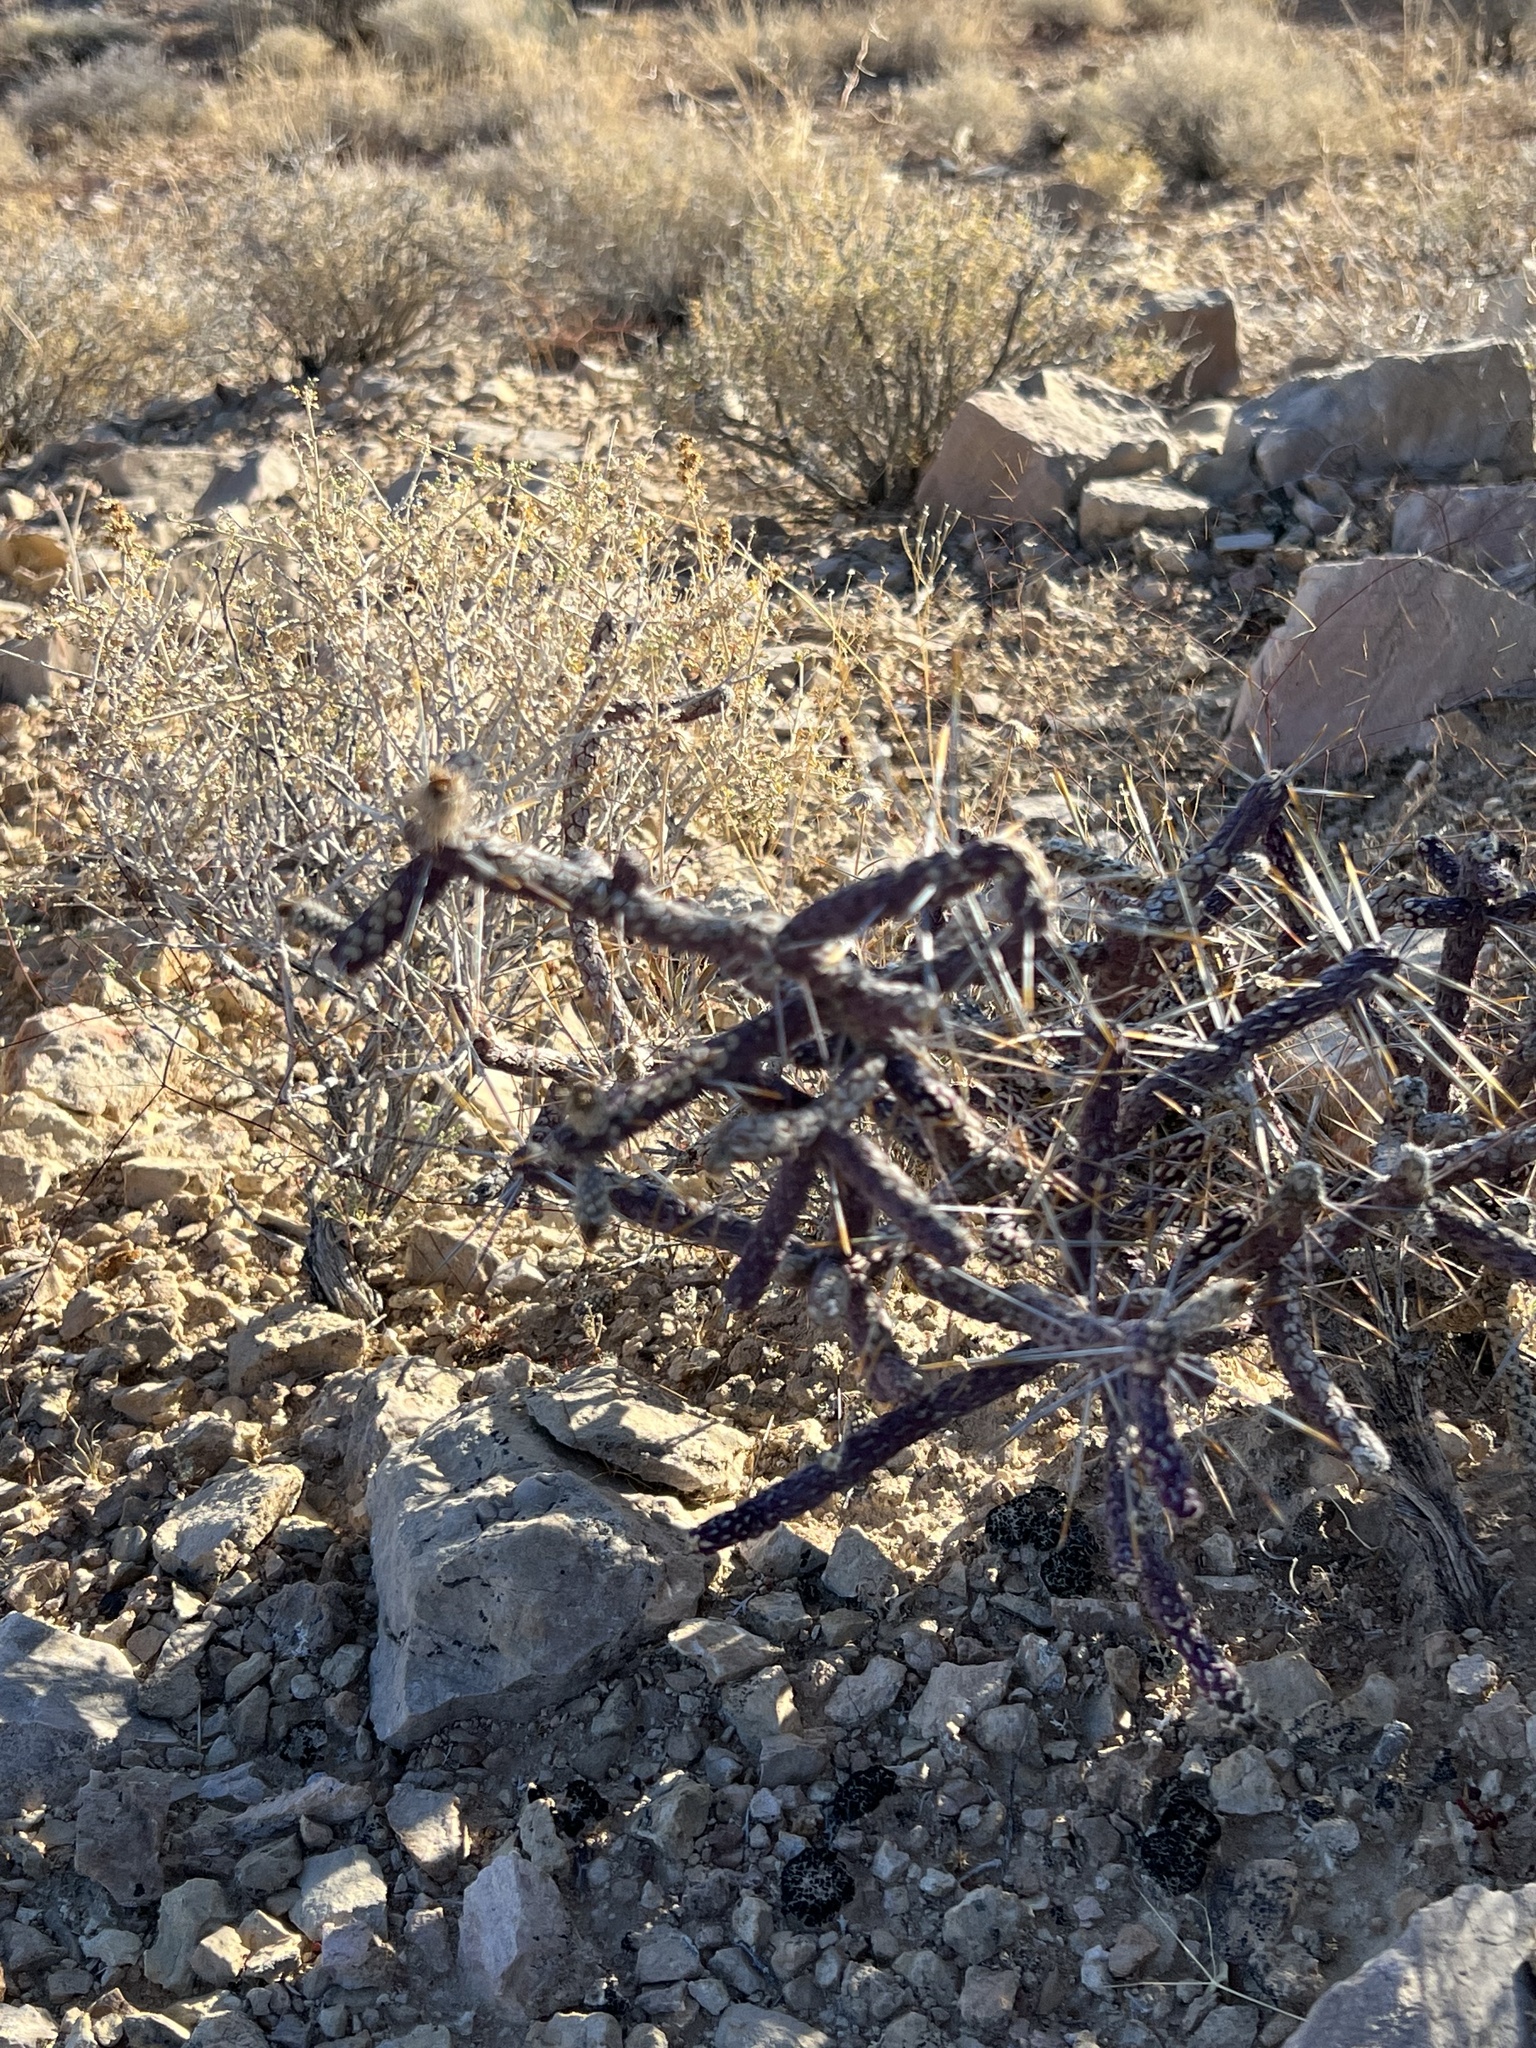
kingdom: Plantae
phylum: Tracheophyta
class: Magnoliopsida
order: Caryophyllales
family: Cactaceae
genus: Cylindropuntia
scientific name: Cylindropuntia ramosissima
